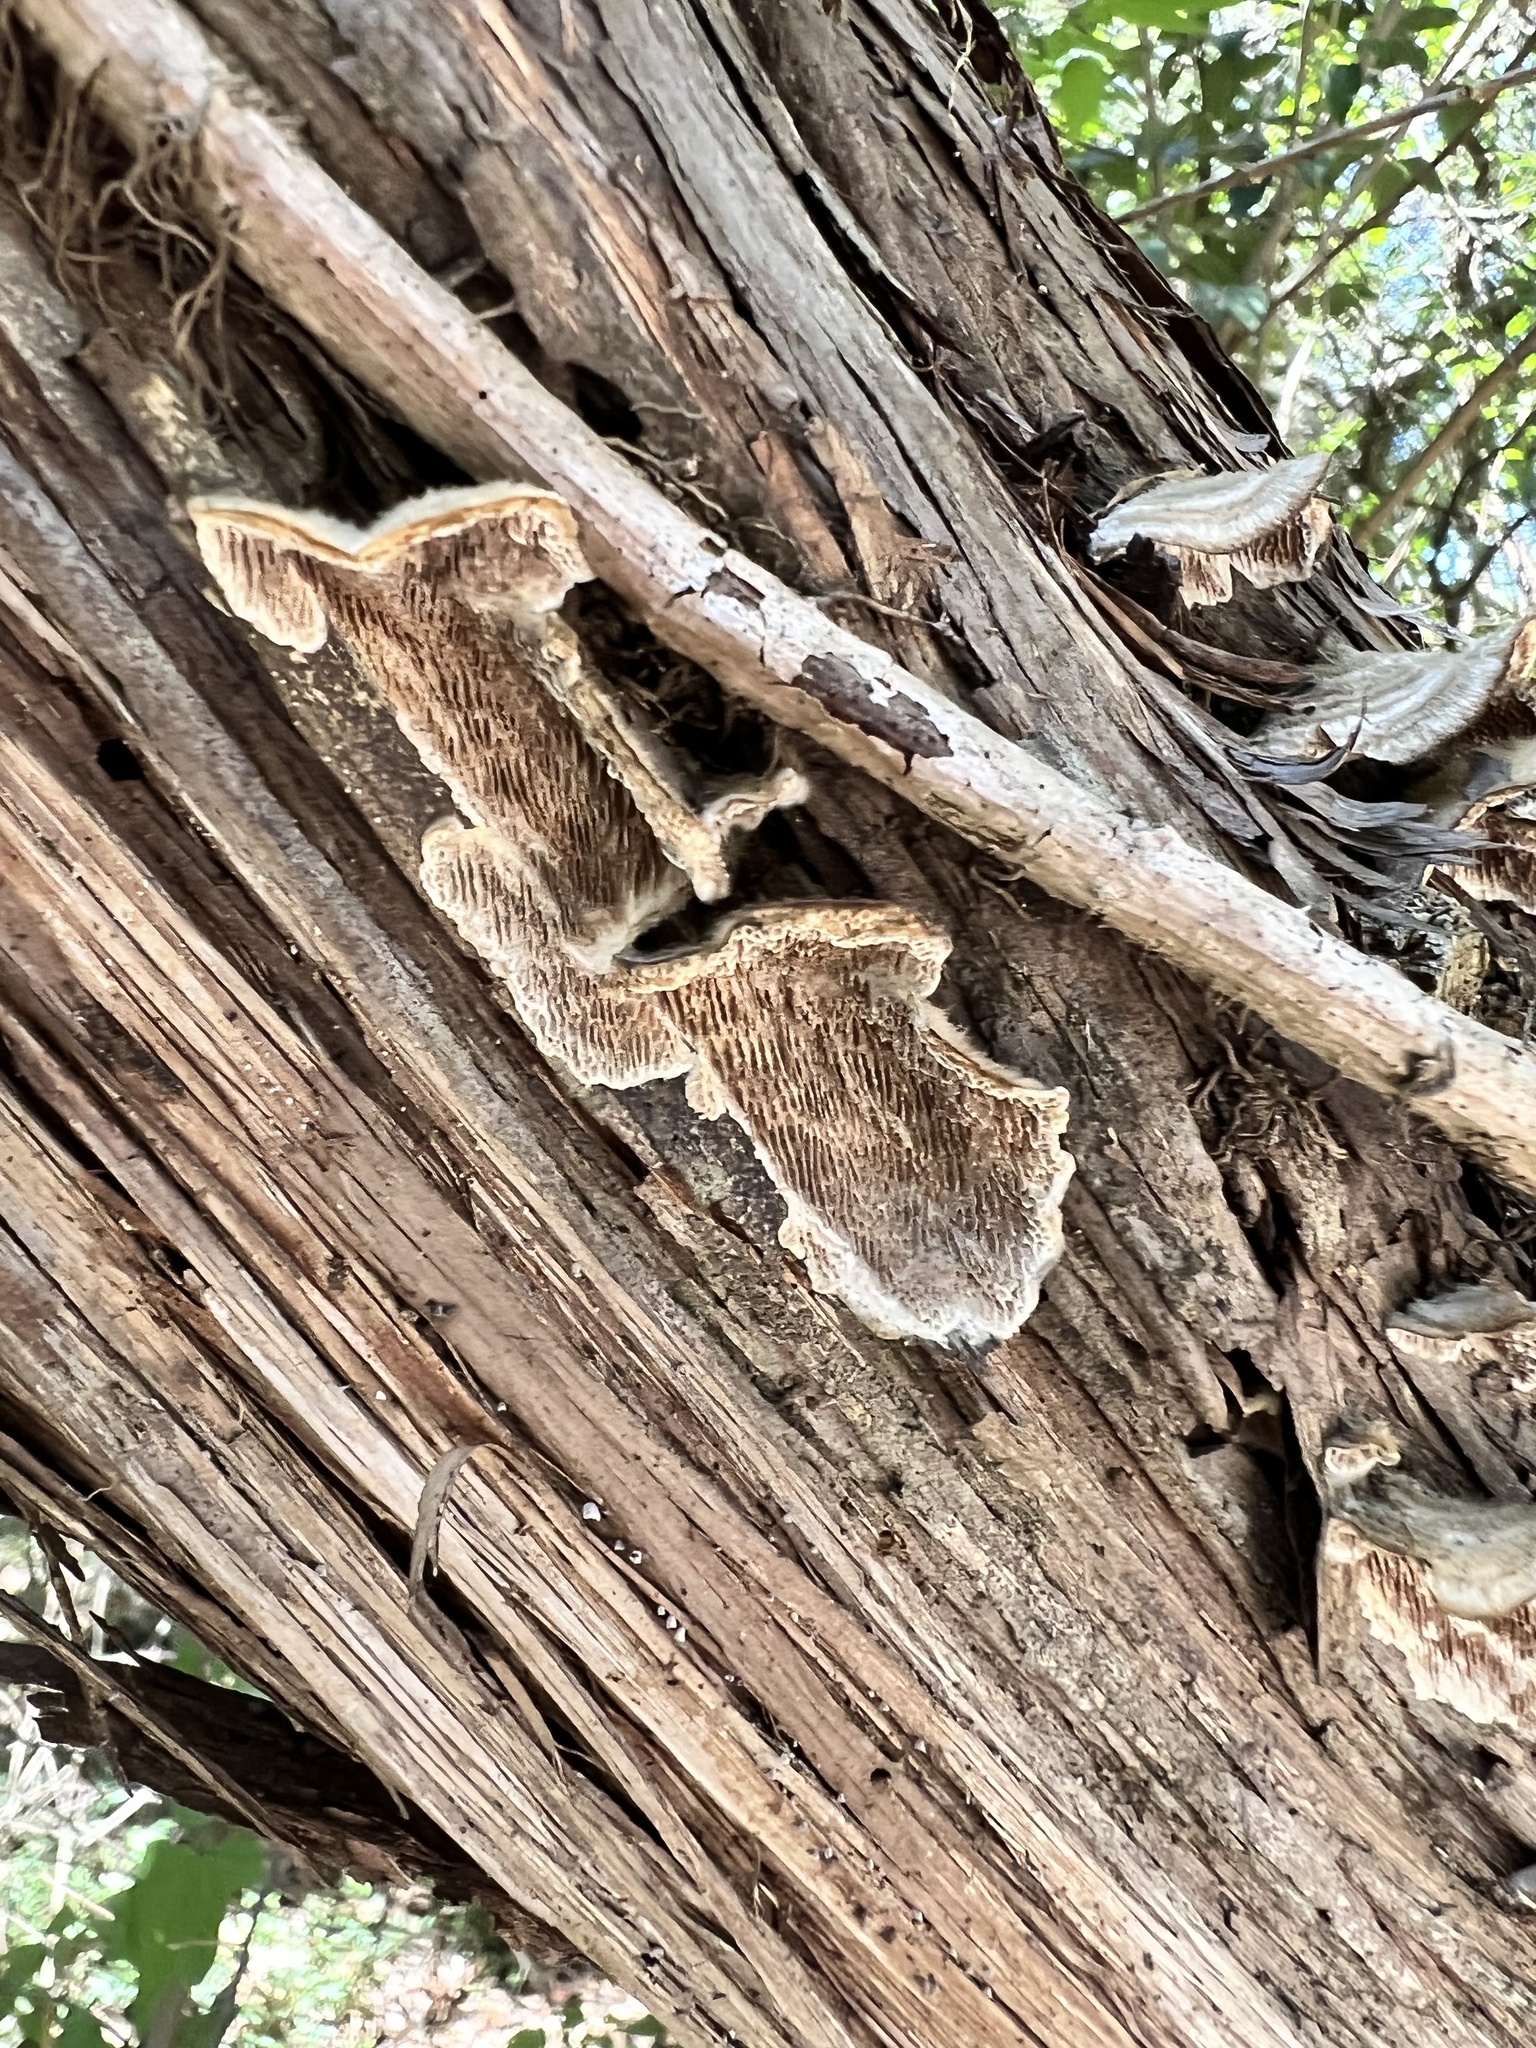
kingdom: Fungi
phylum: Basidiomycota
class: Agaricomycetes
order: Polyporales
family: Polyporaceae
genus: Trametes
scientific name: Trametes villosa
